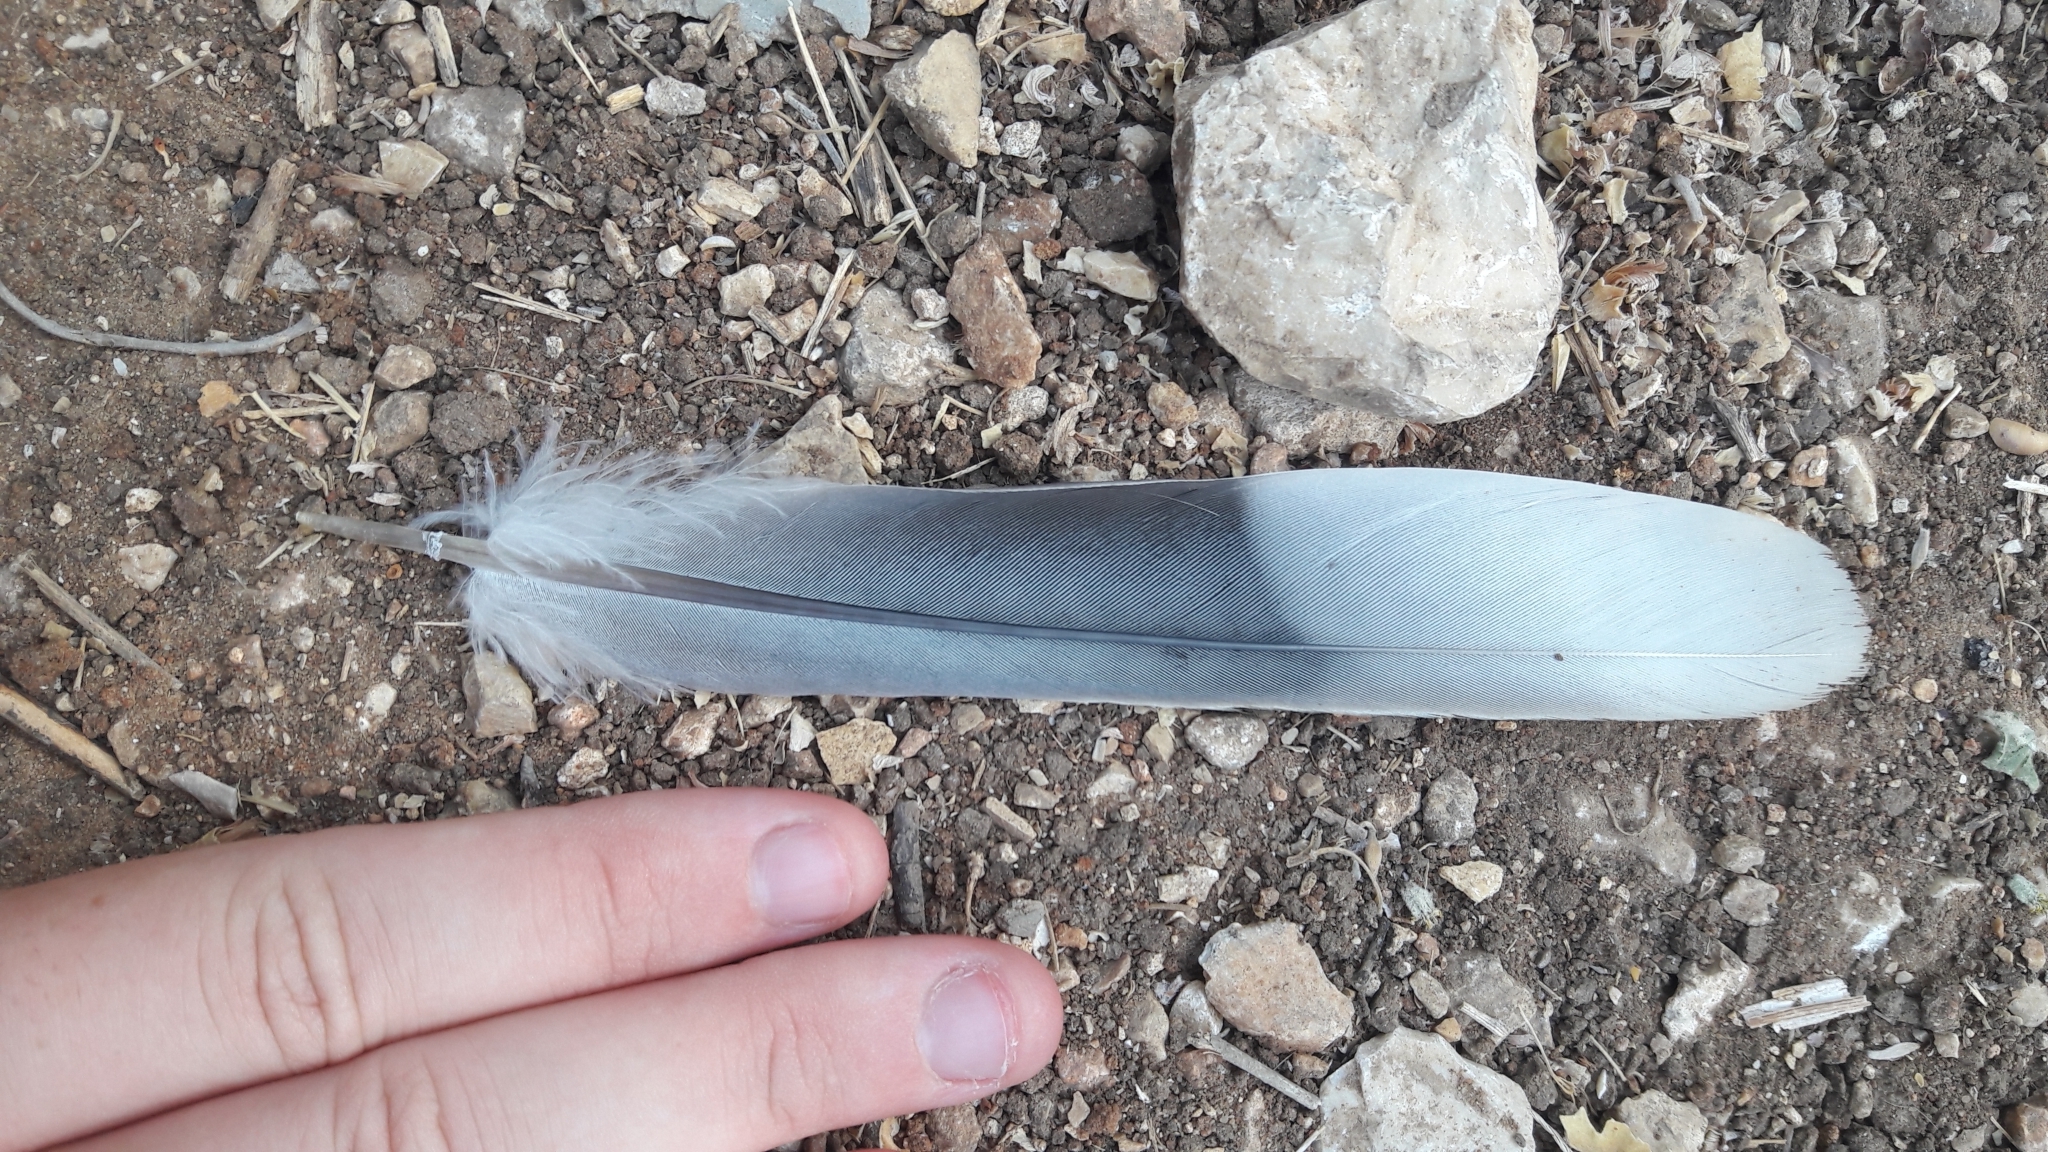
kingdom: Animalia
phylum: Chordata
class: Aves
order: Columbiformes
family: Columbidae
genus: Streptopelia
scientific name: Streptopelia decaocto
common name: Eurasian collared dove
